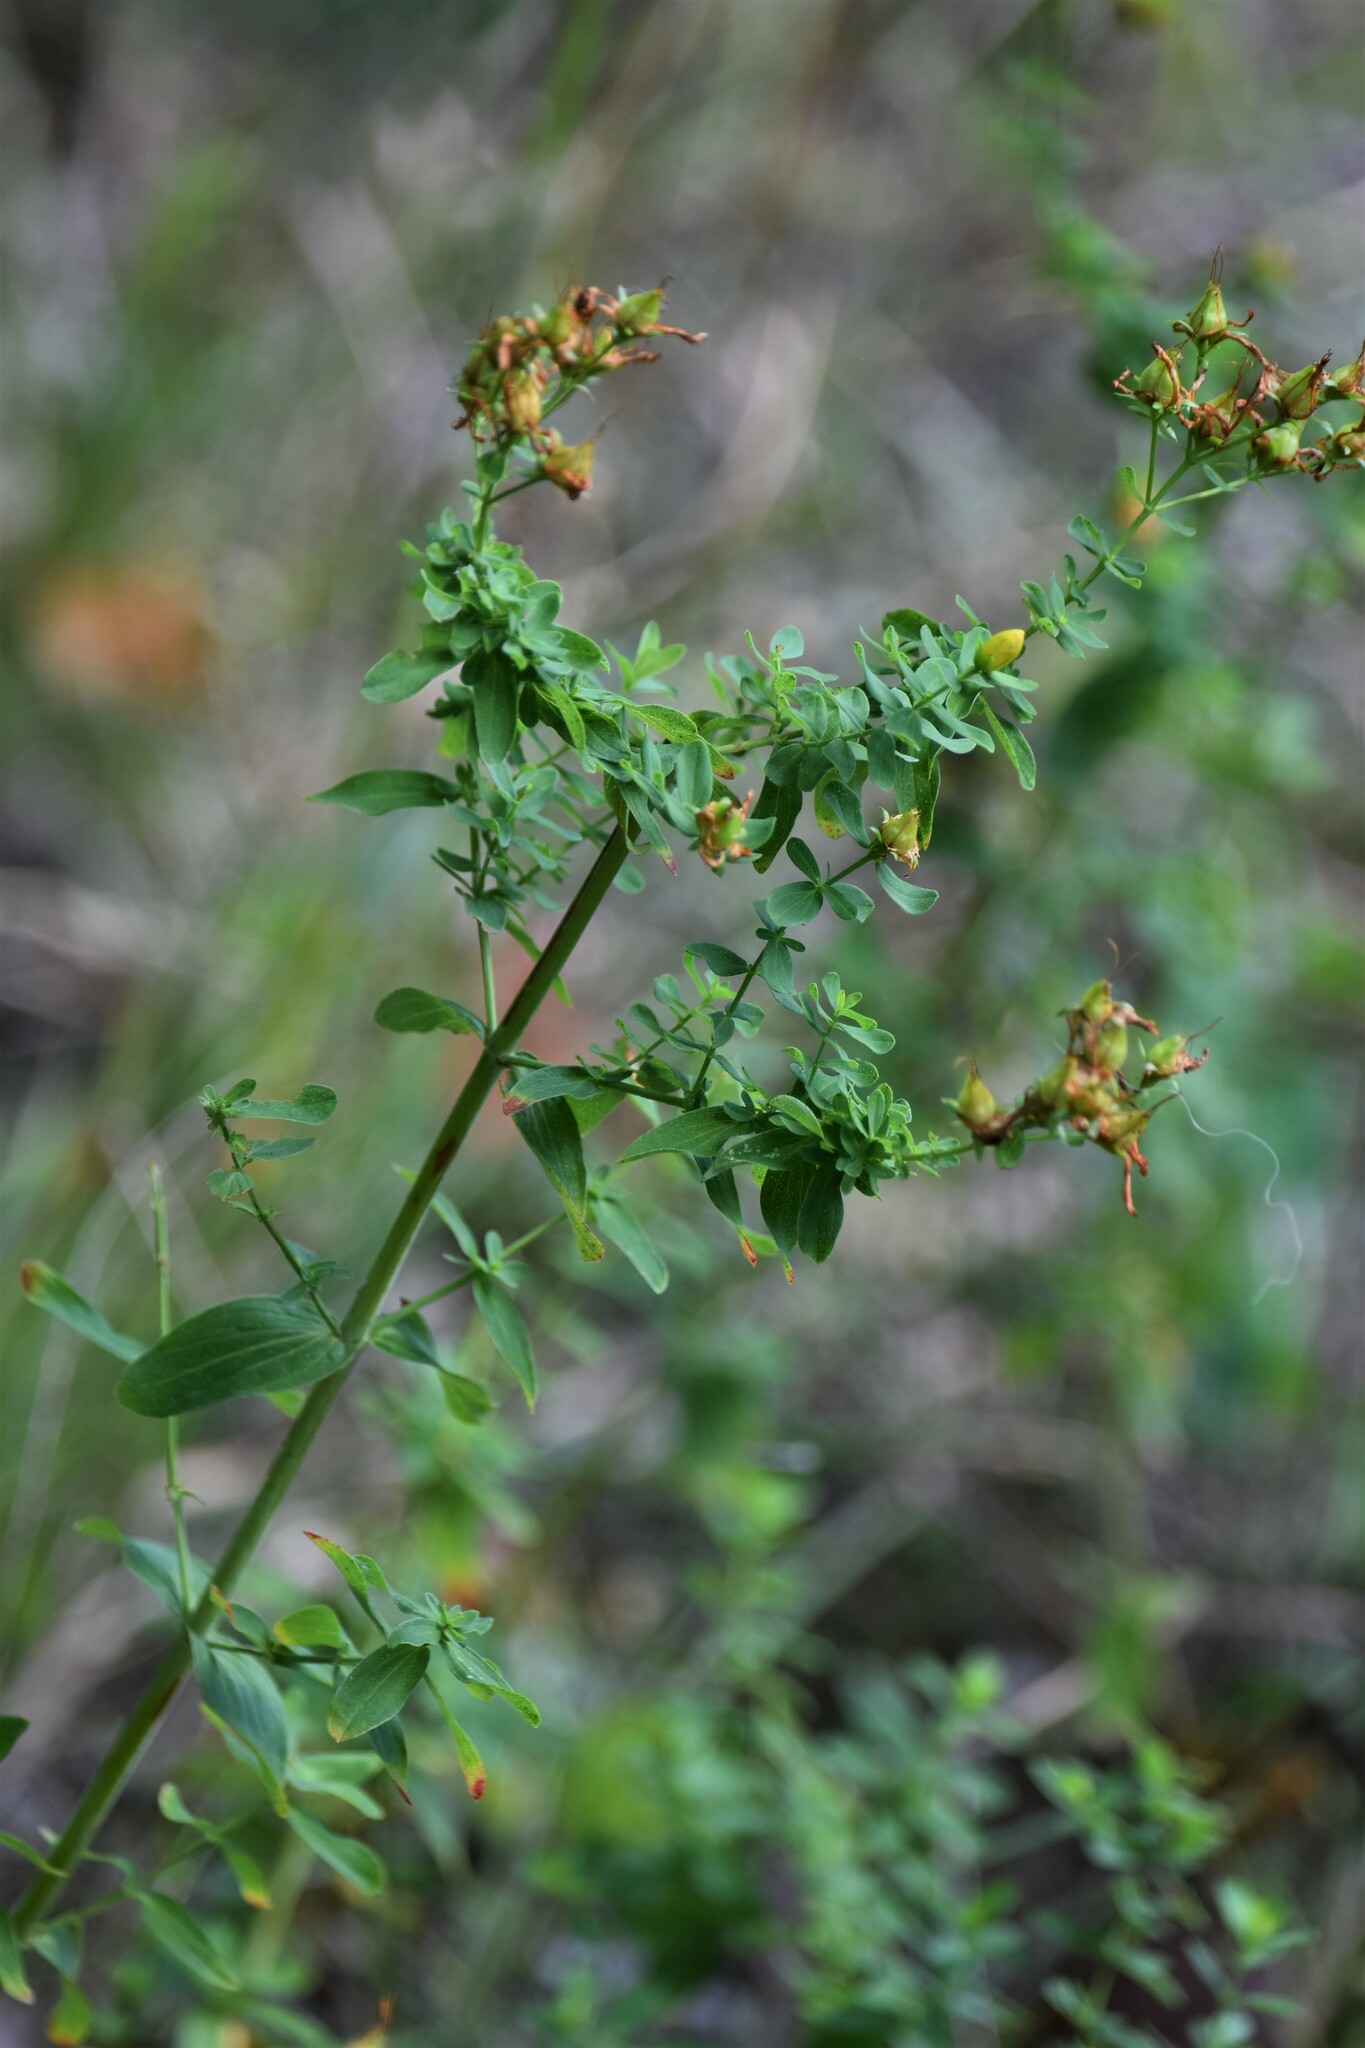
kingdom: Plantae
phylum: Tracheophyta
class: Magnoliopsida
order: Malpighiales
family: Hypericaceae
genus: Hypericum
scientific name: Hypericum perforatum
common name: Common st. johnswort
